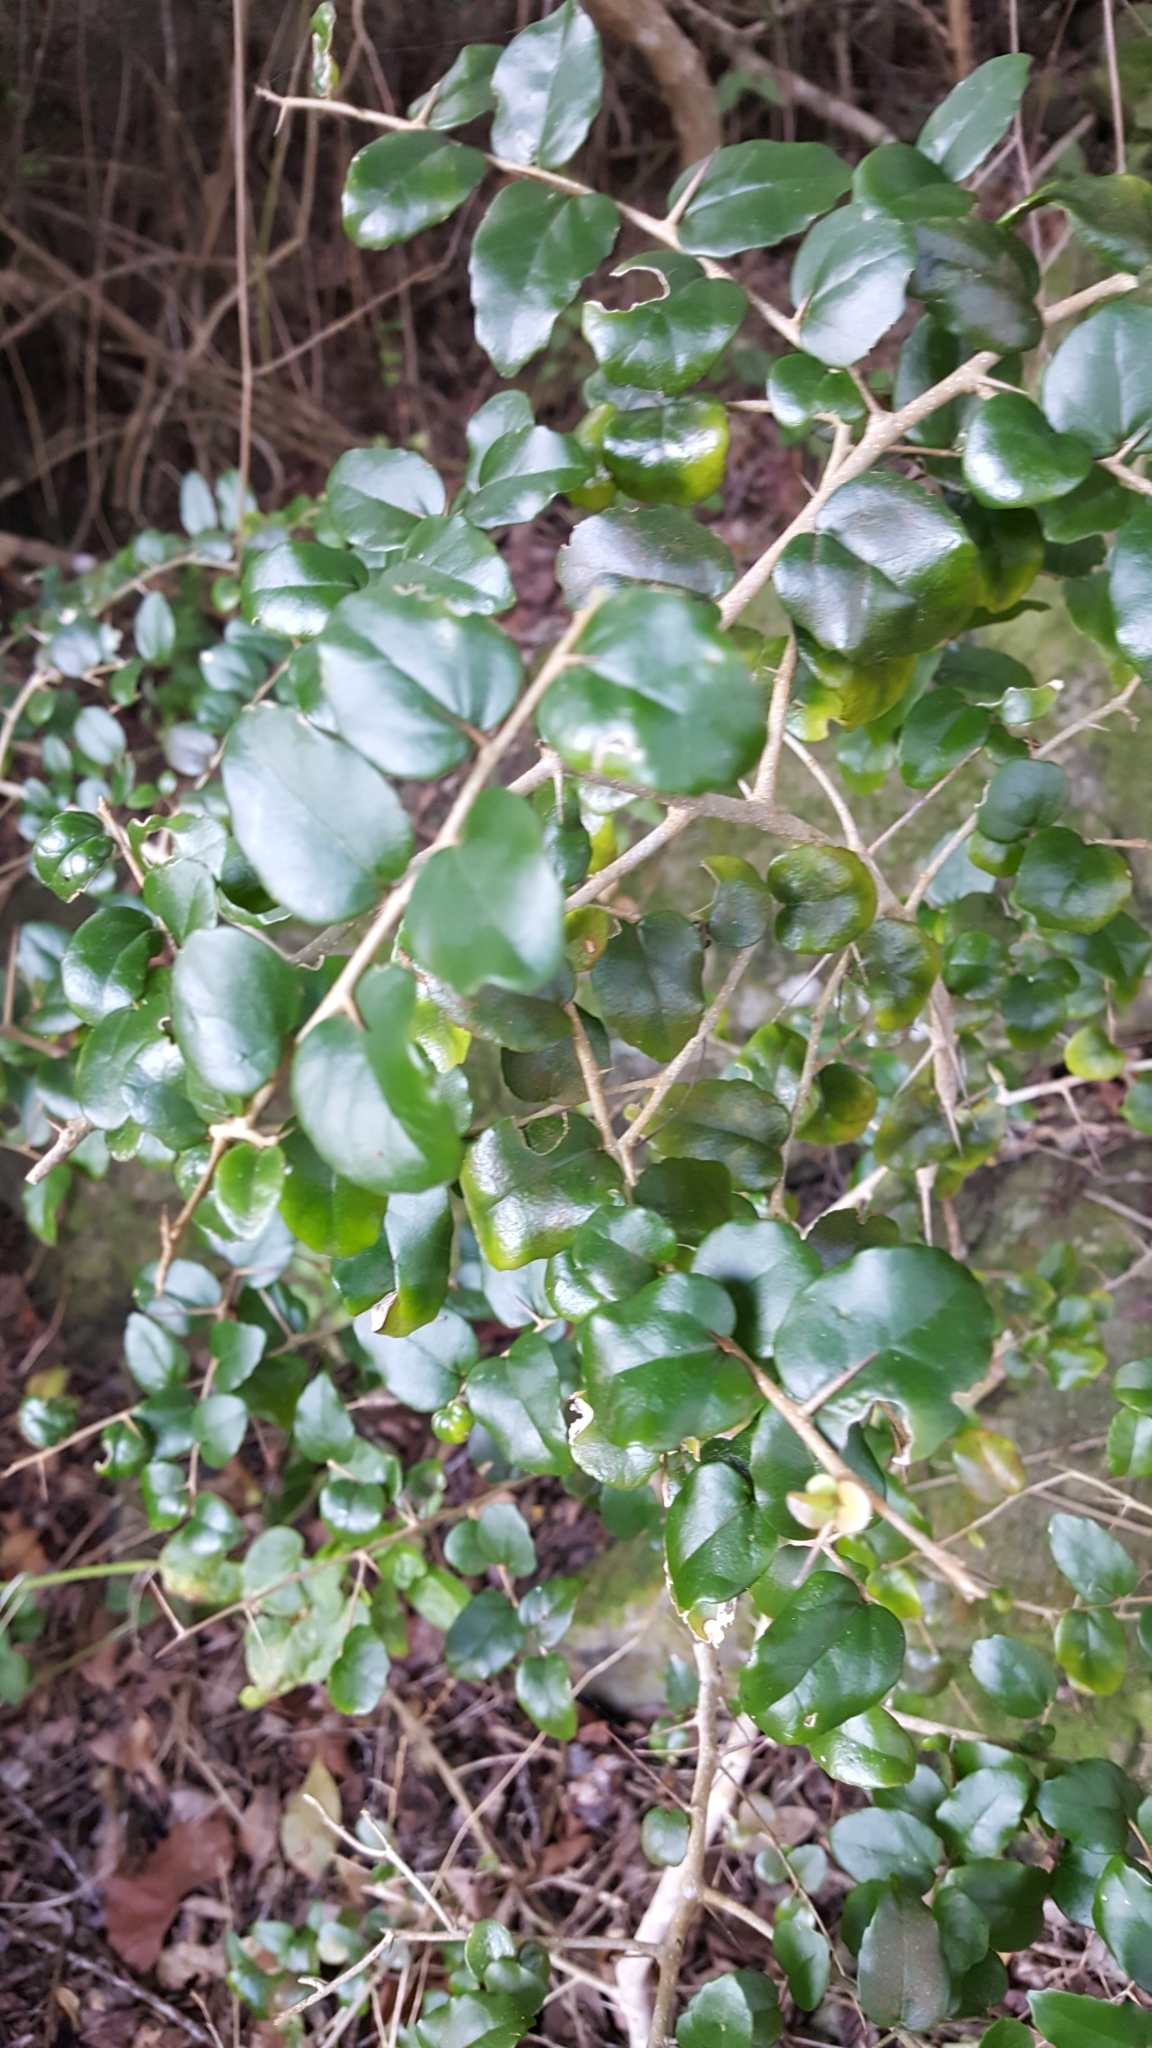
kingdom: Plantae
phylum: Tracheophyta
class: Magnoliopsida
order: Malpighiales
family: Salicaceae
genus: Dovyalis
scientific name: Dovyalis rhamnoides
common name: Sourberry
